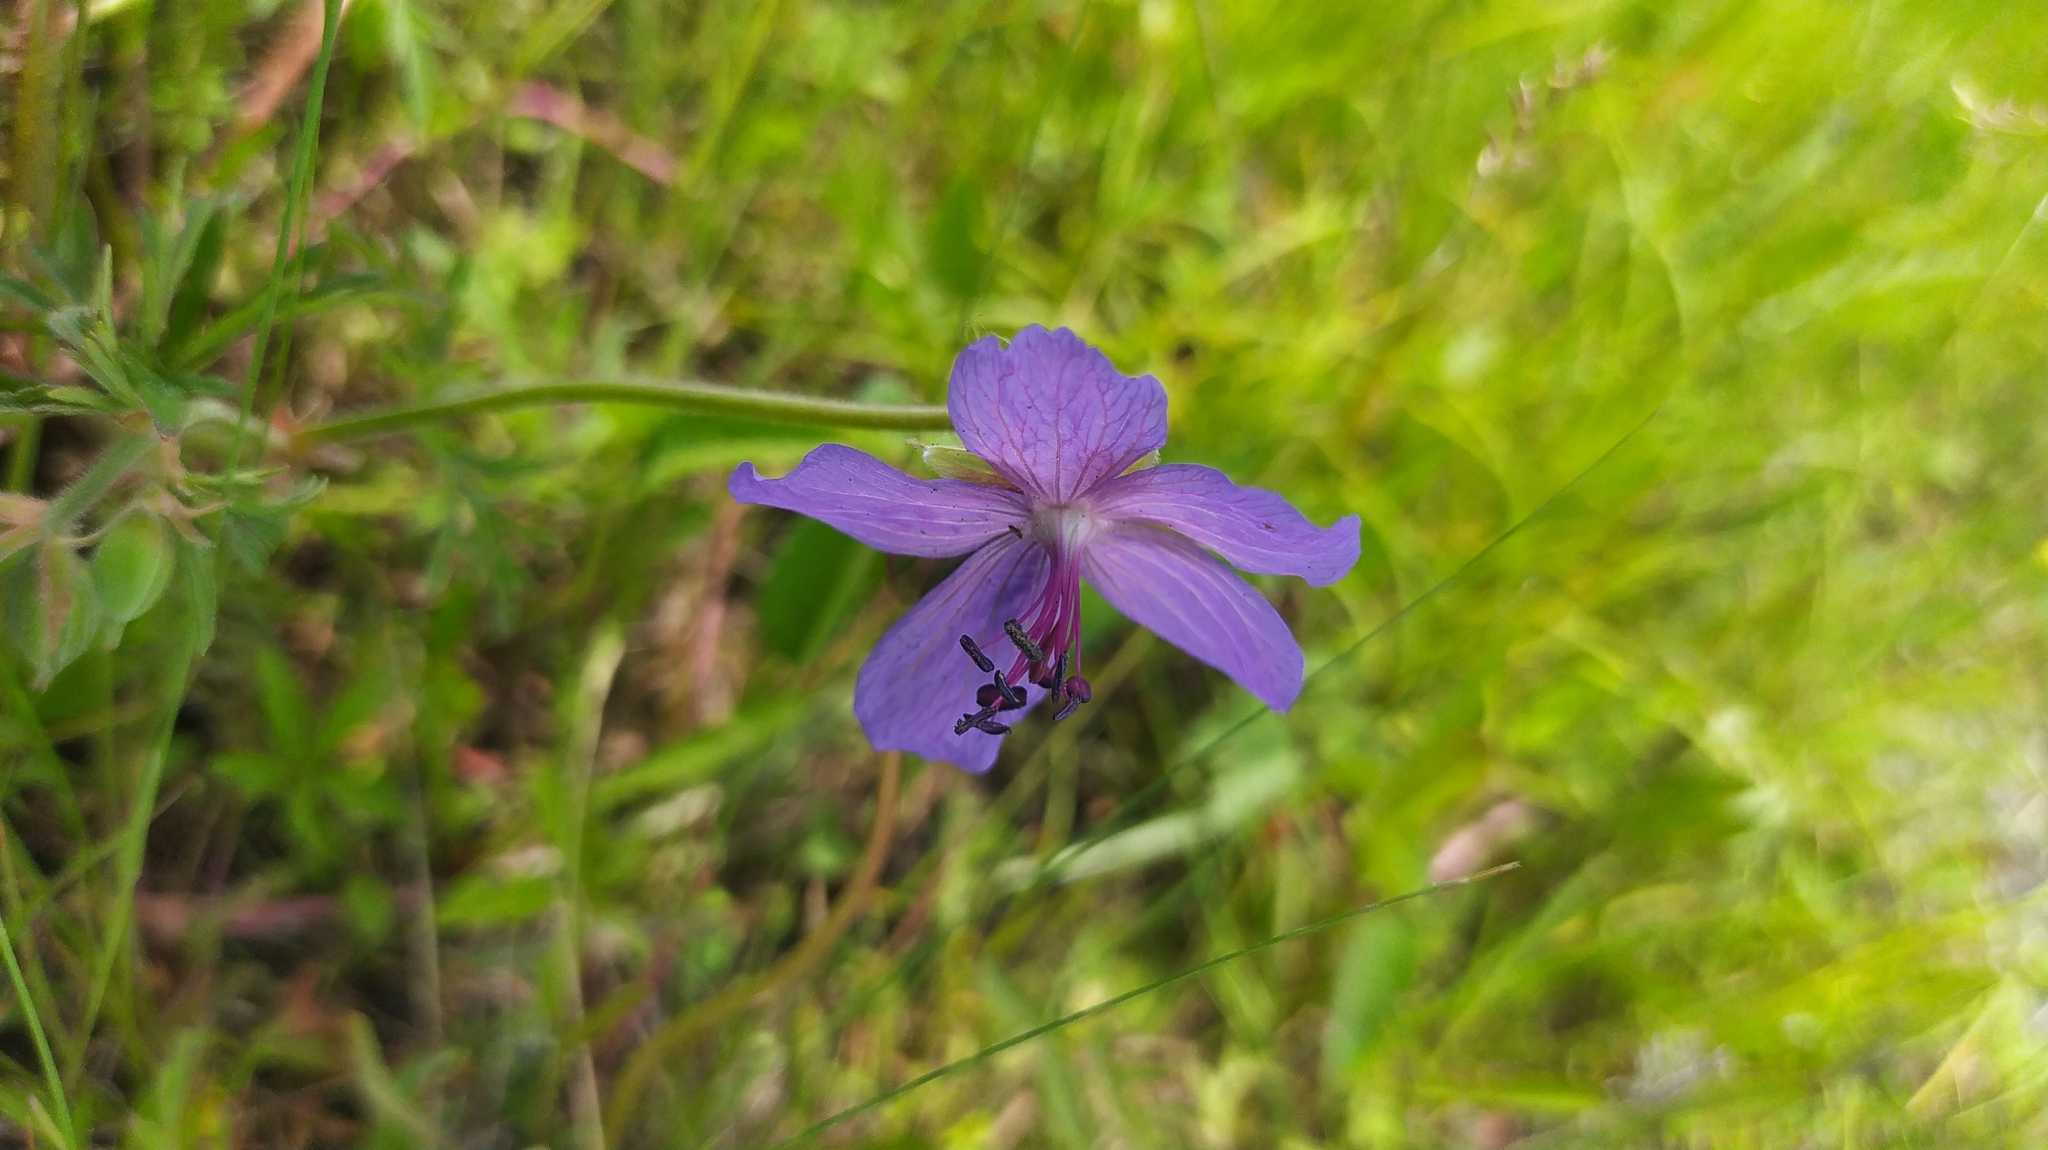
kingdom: Plantae
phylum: Tracheophyta
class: Magnoliopsida
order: Geraniales
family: Geraniaceae
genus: Geranium
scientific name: Geranium platyanthum
